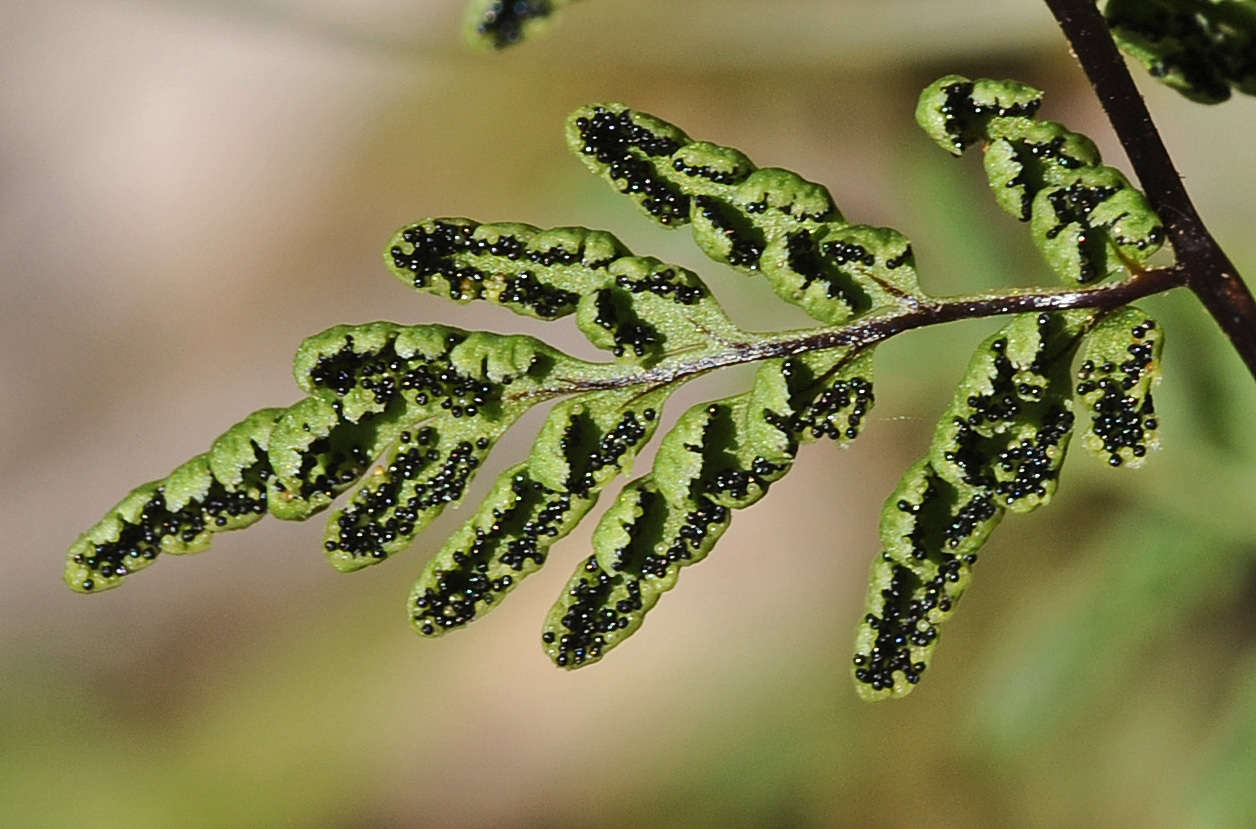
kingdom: Plantae
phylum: Tracheophyta
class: Polypodiopsida
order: Polypodiales
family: Pteridaceae
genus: Cheilanthes
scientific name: Cheilanthes austrotenuifolia
